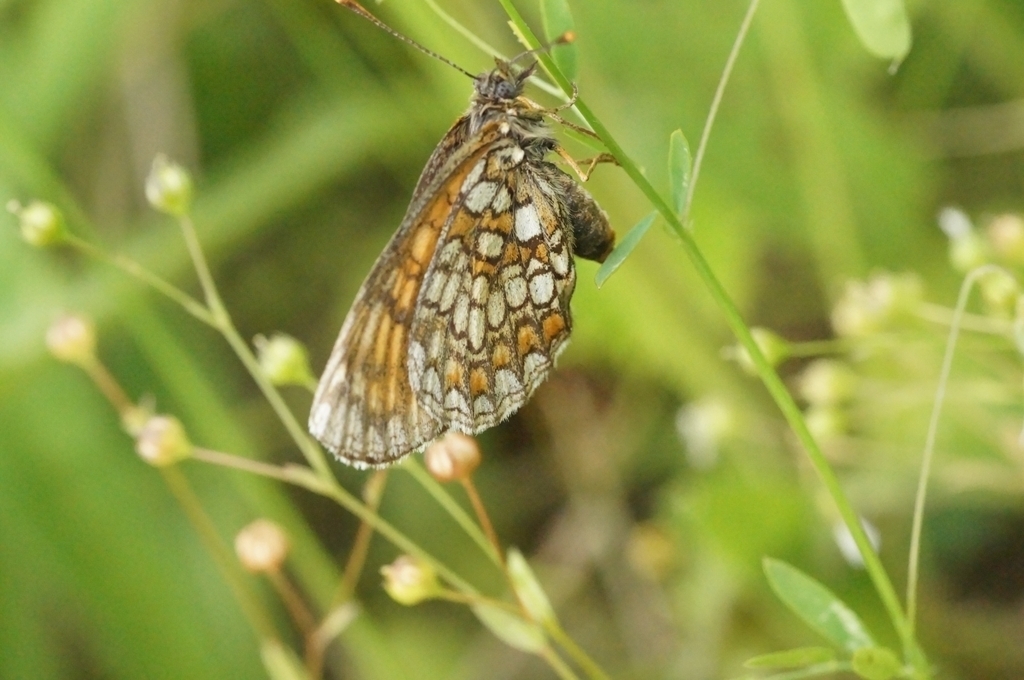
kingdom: Animalia
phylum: Arthropoda
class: Insecta
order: Lepidoptera
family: Nymphalidae
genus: Mellicta
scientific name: Mellicta britomartis
